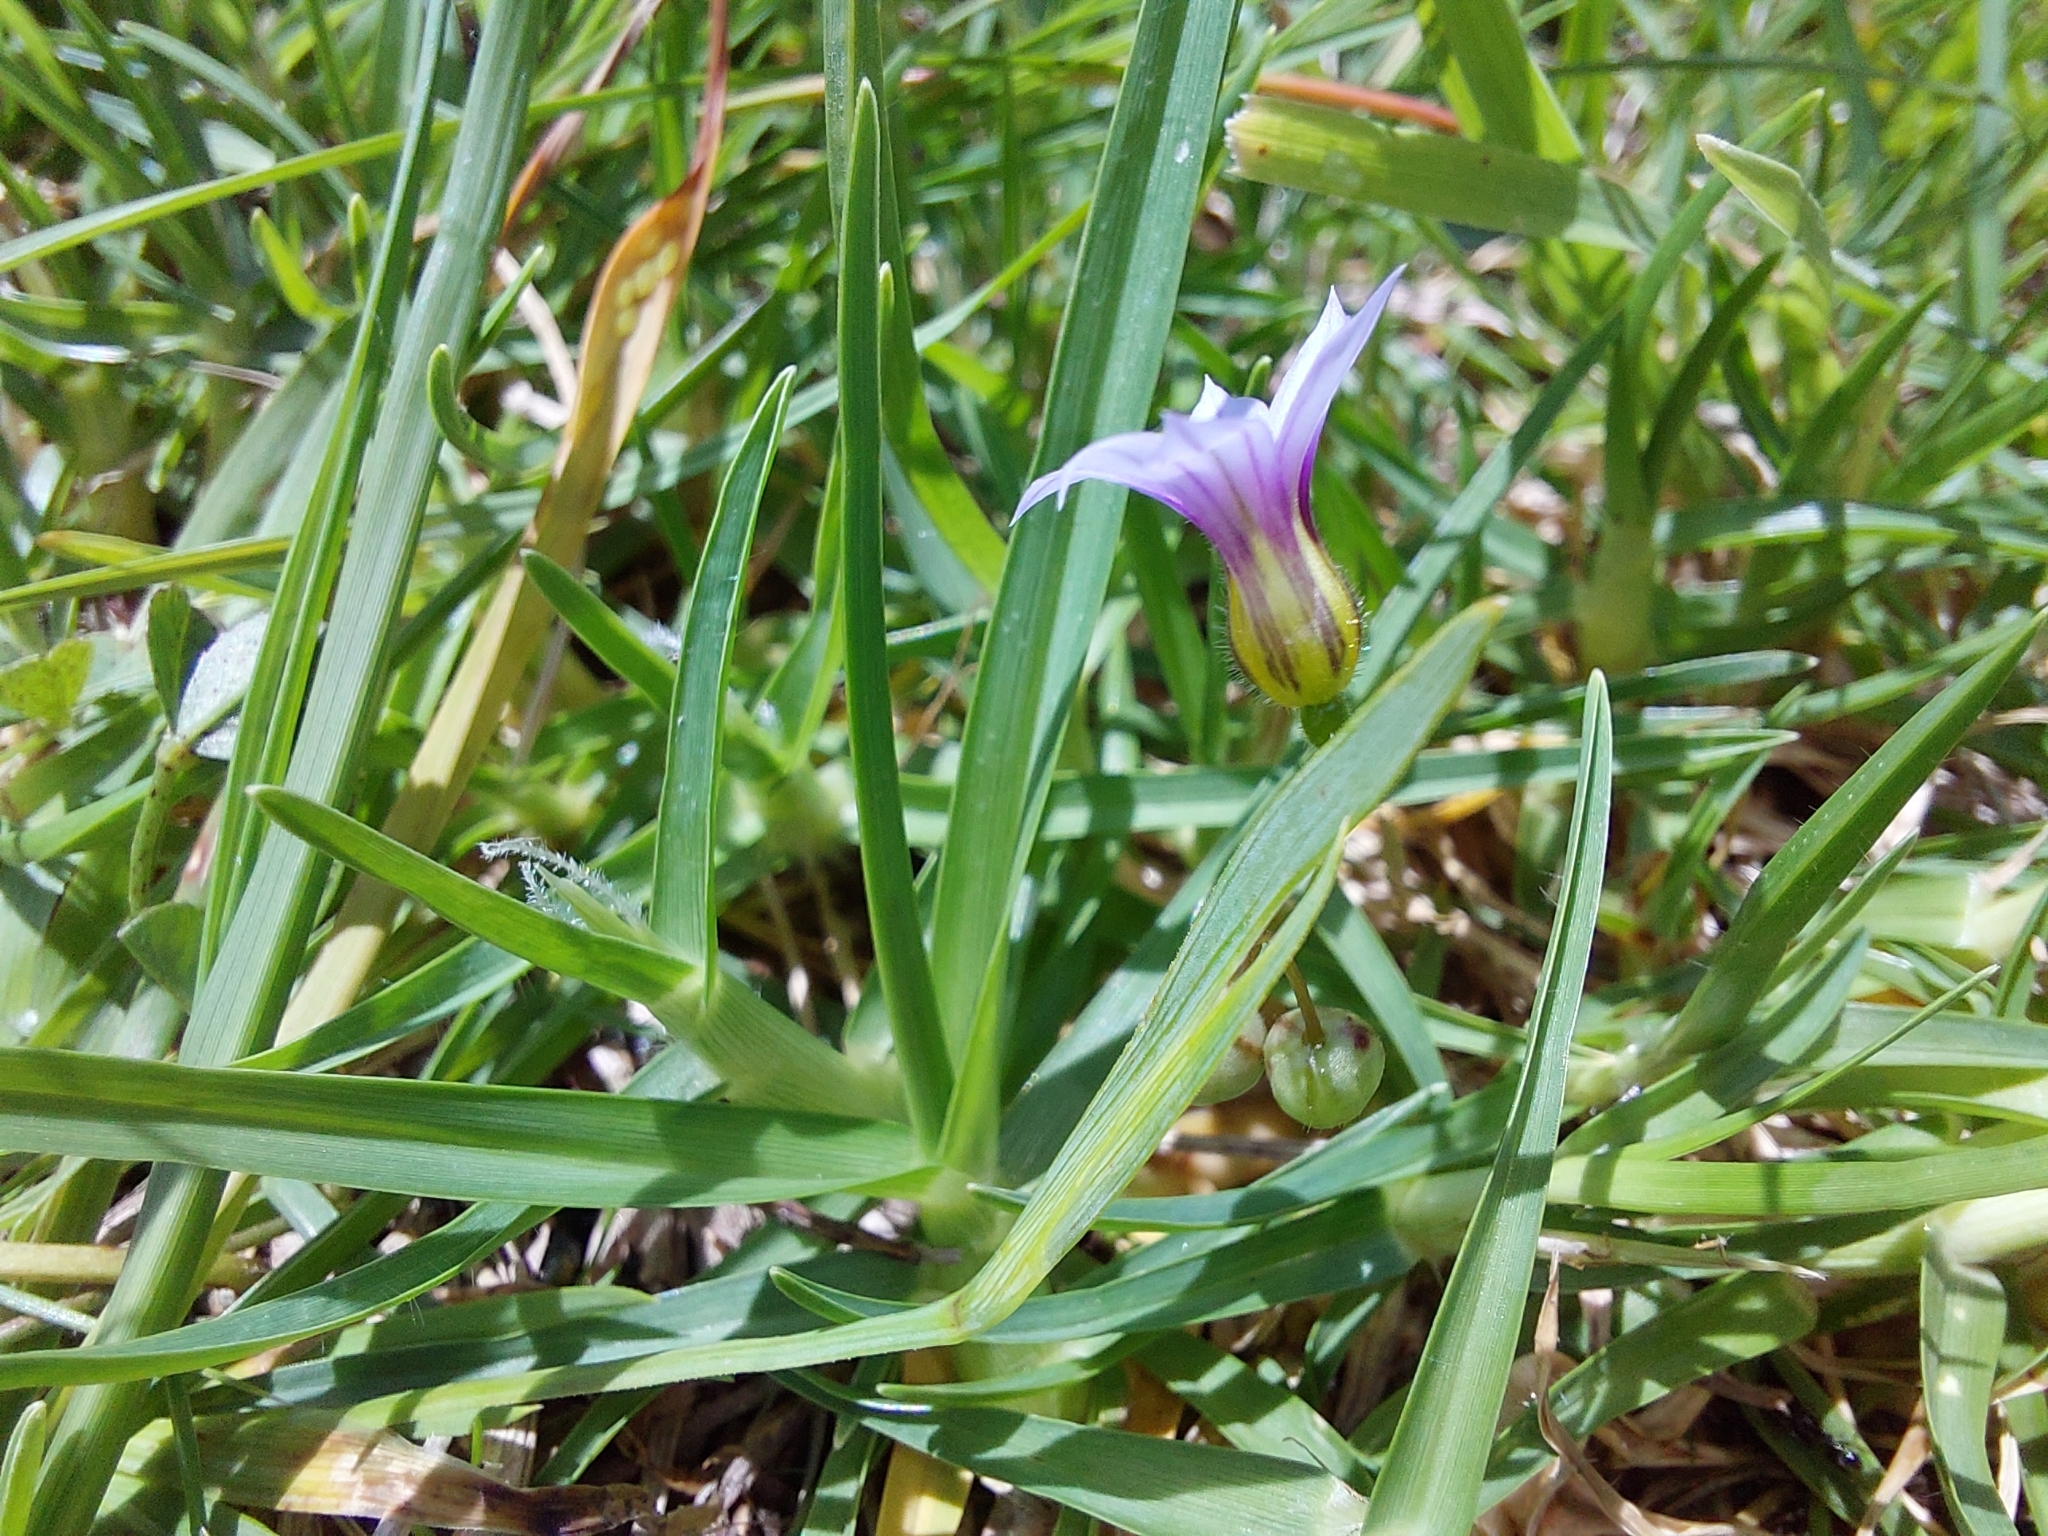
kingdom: Plantae
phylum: Tracheophyta
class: Liliopsida
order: Asparagales
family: Iridaceae
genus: Sisyrinchium
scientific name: Sisyrinchium micranthum
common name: Bermuda pigroot
